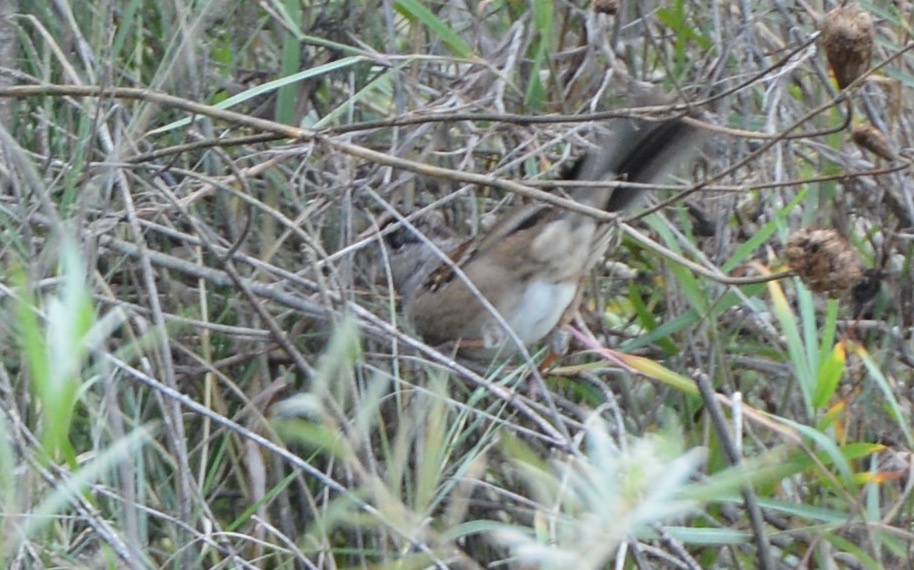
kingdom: Animalia
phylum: Chordata
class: Aves
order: Passeriformes
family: Passerellidae
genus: Zonotrichia
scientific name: Zonotrichia atricapilla
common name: Golden-crowned sparrow
